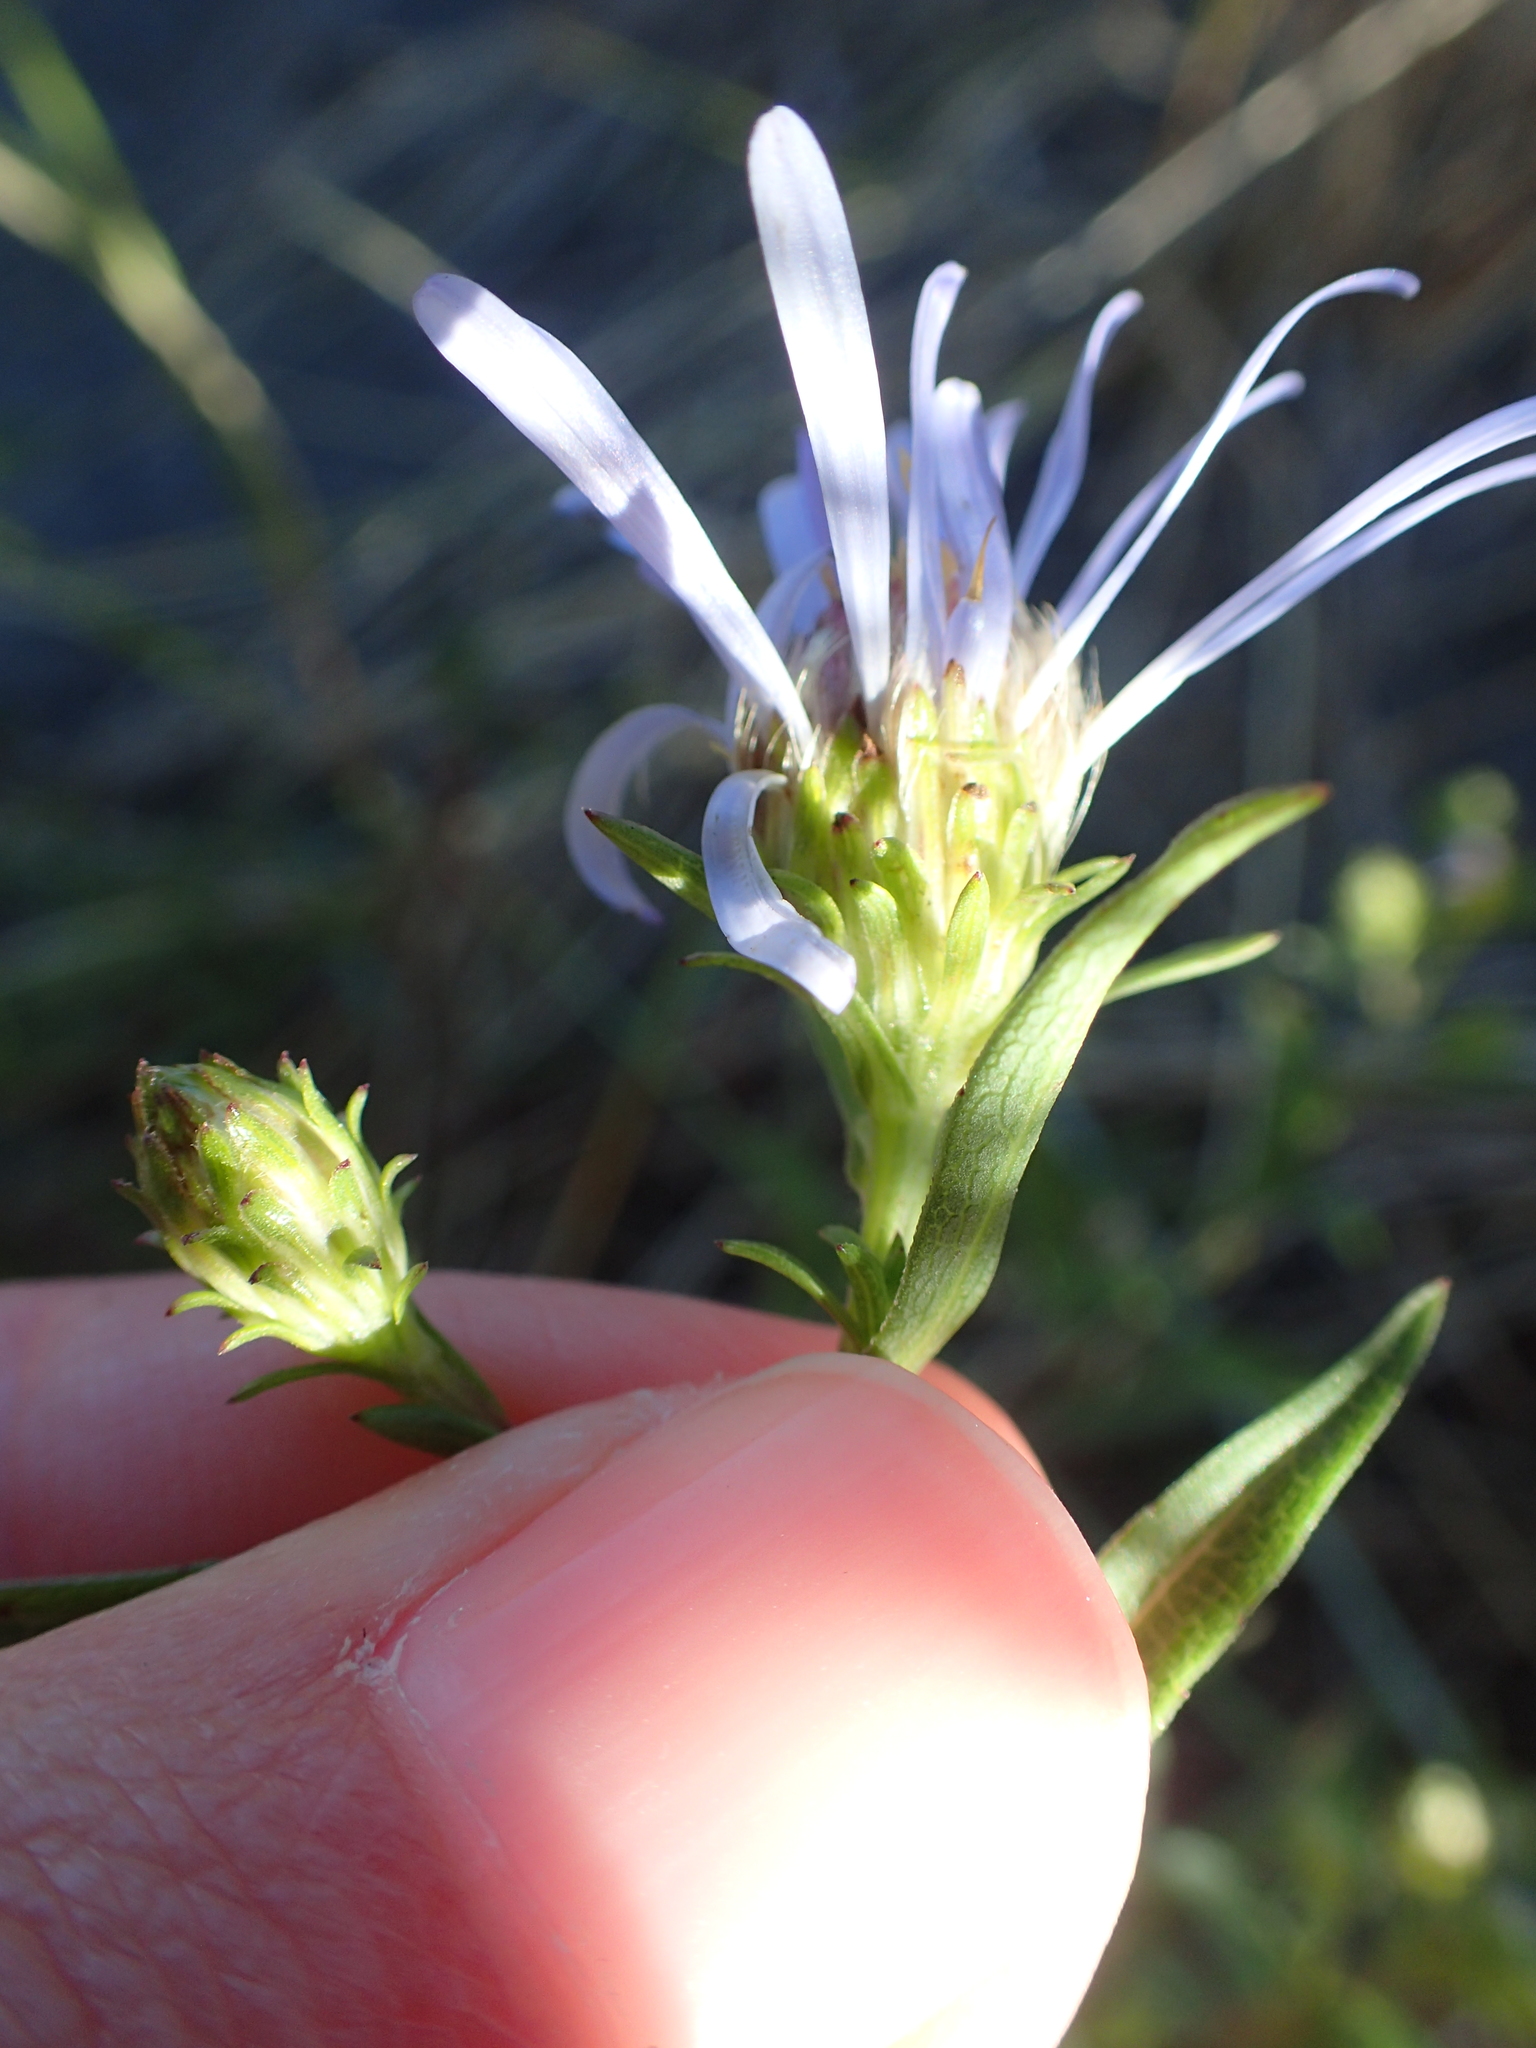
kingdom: Plantae
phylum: Tracheophyta
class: Magnoliopsida
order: Asterales
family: Asteraceae
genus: Symphyotrichum
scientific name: Symphyotrichum chilense
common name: Pacific aster
